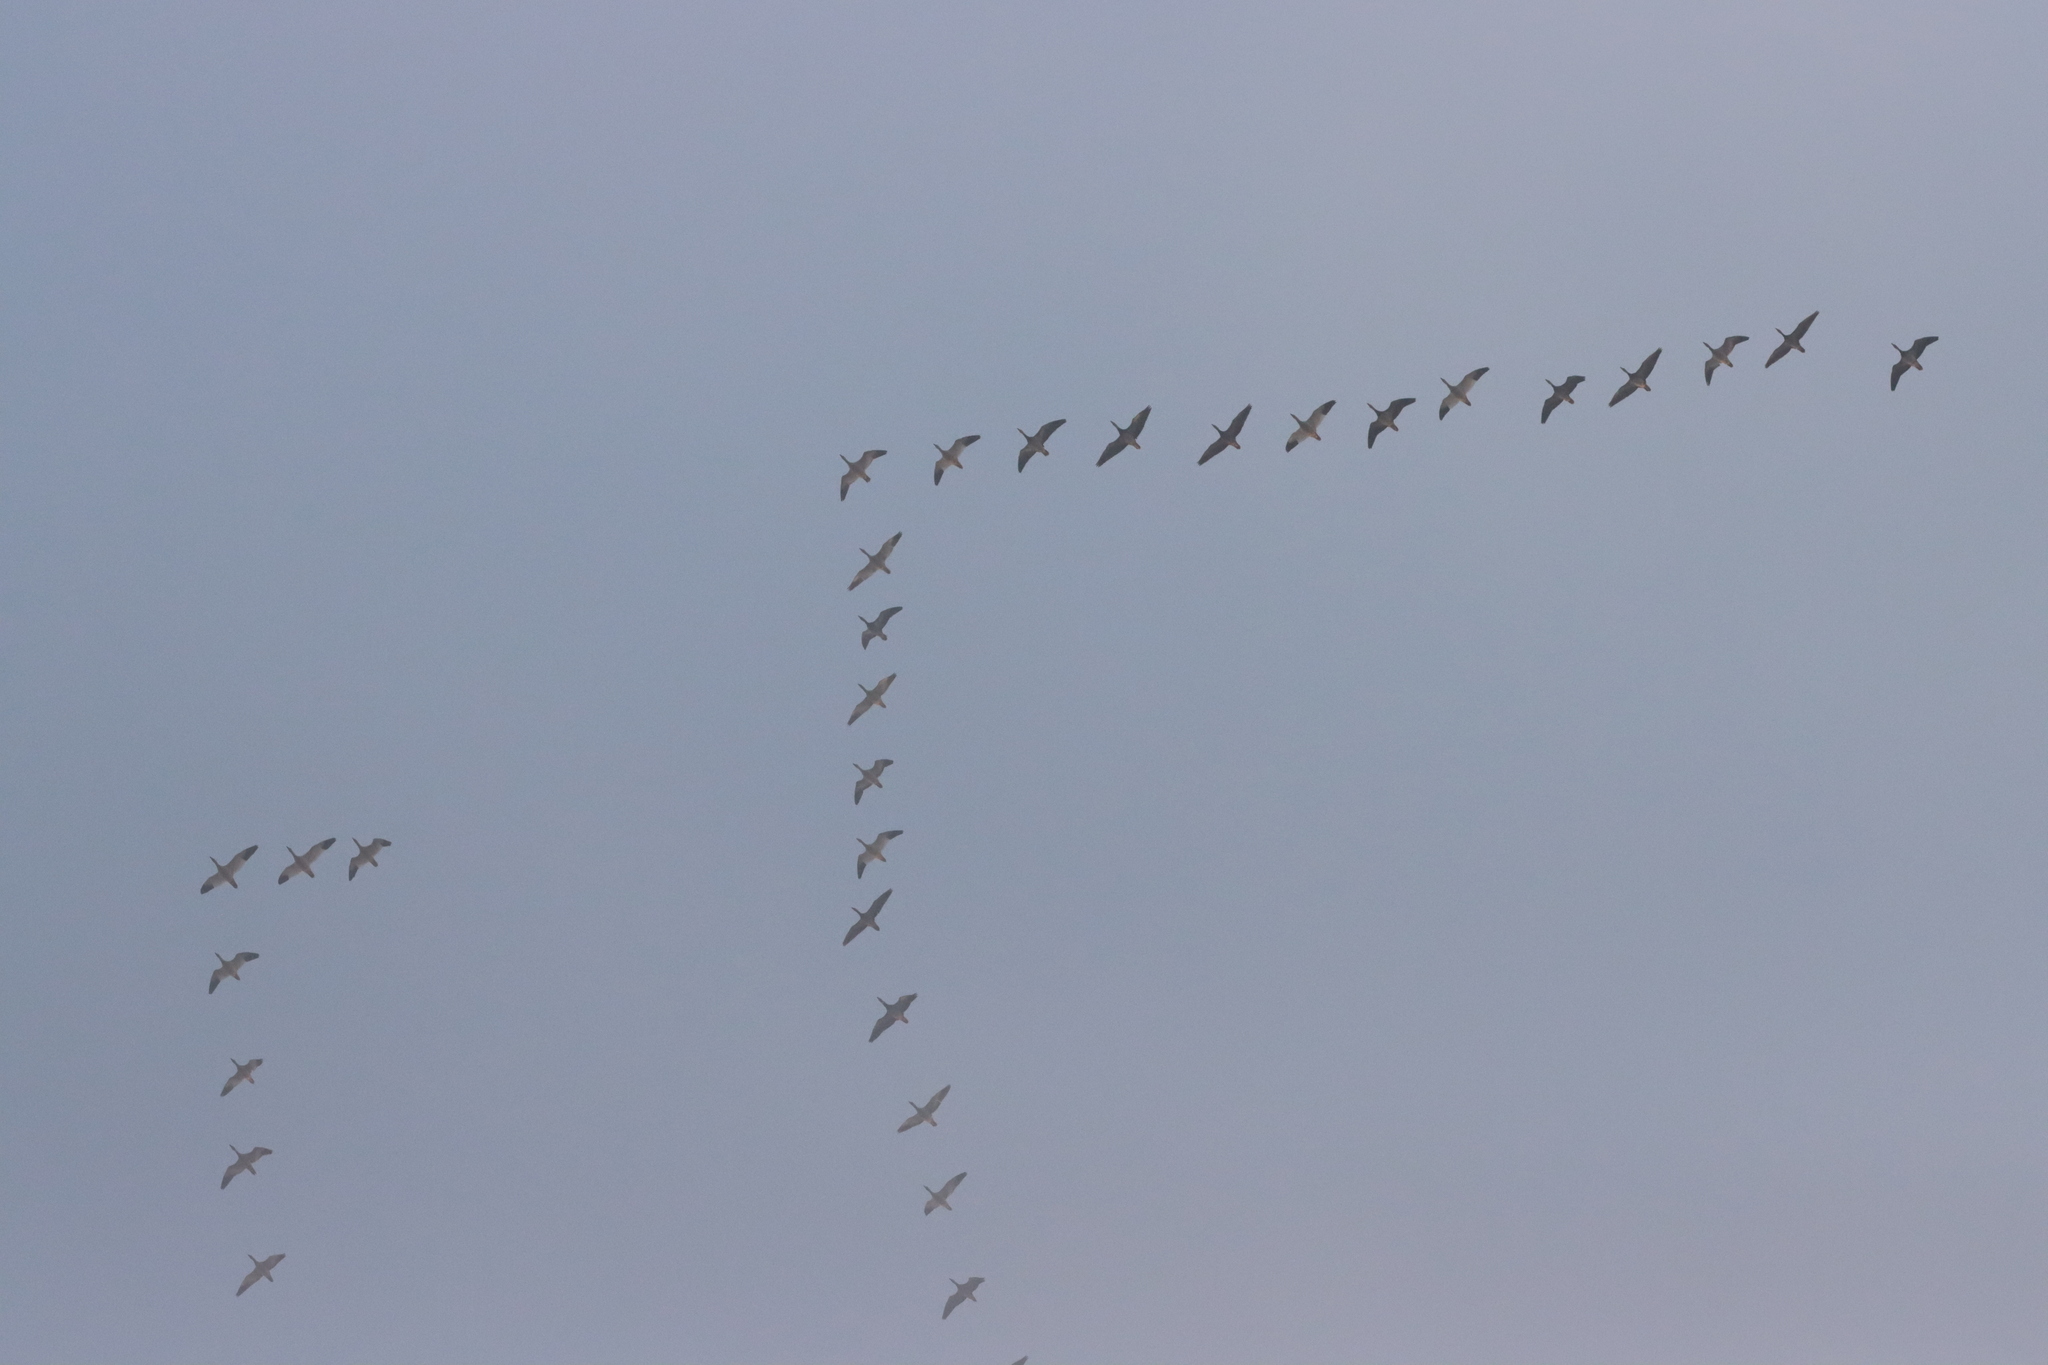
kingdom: Animalia
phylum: Chordata
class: Aves
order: Anseriformes
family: Anatidae
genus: Anser
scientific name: Anser caerulescens
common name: Snow goose
